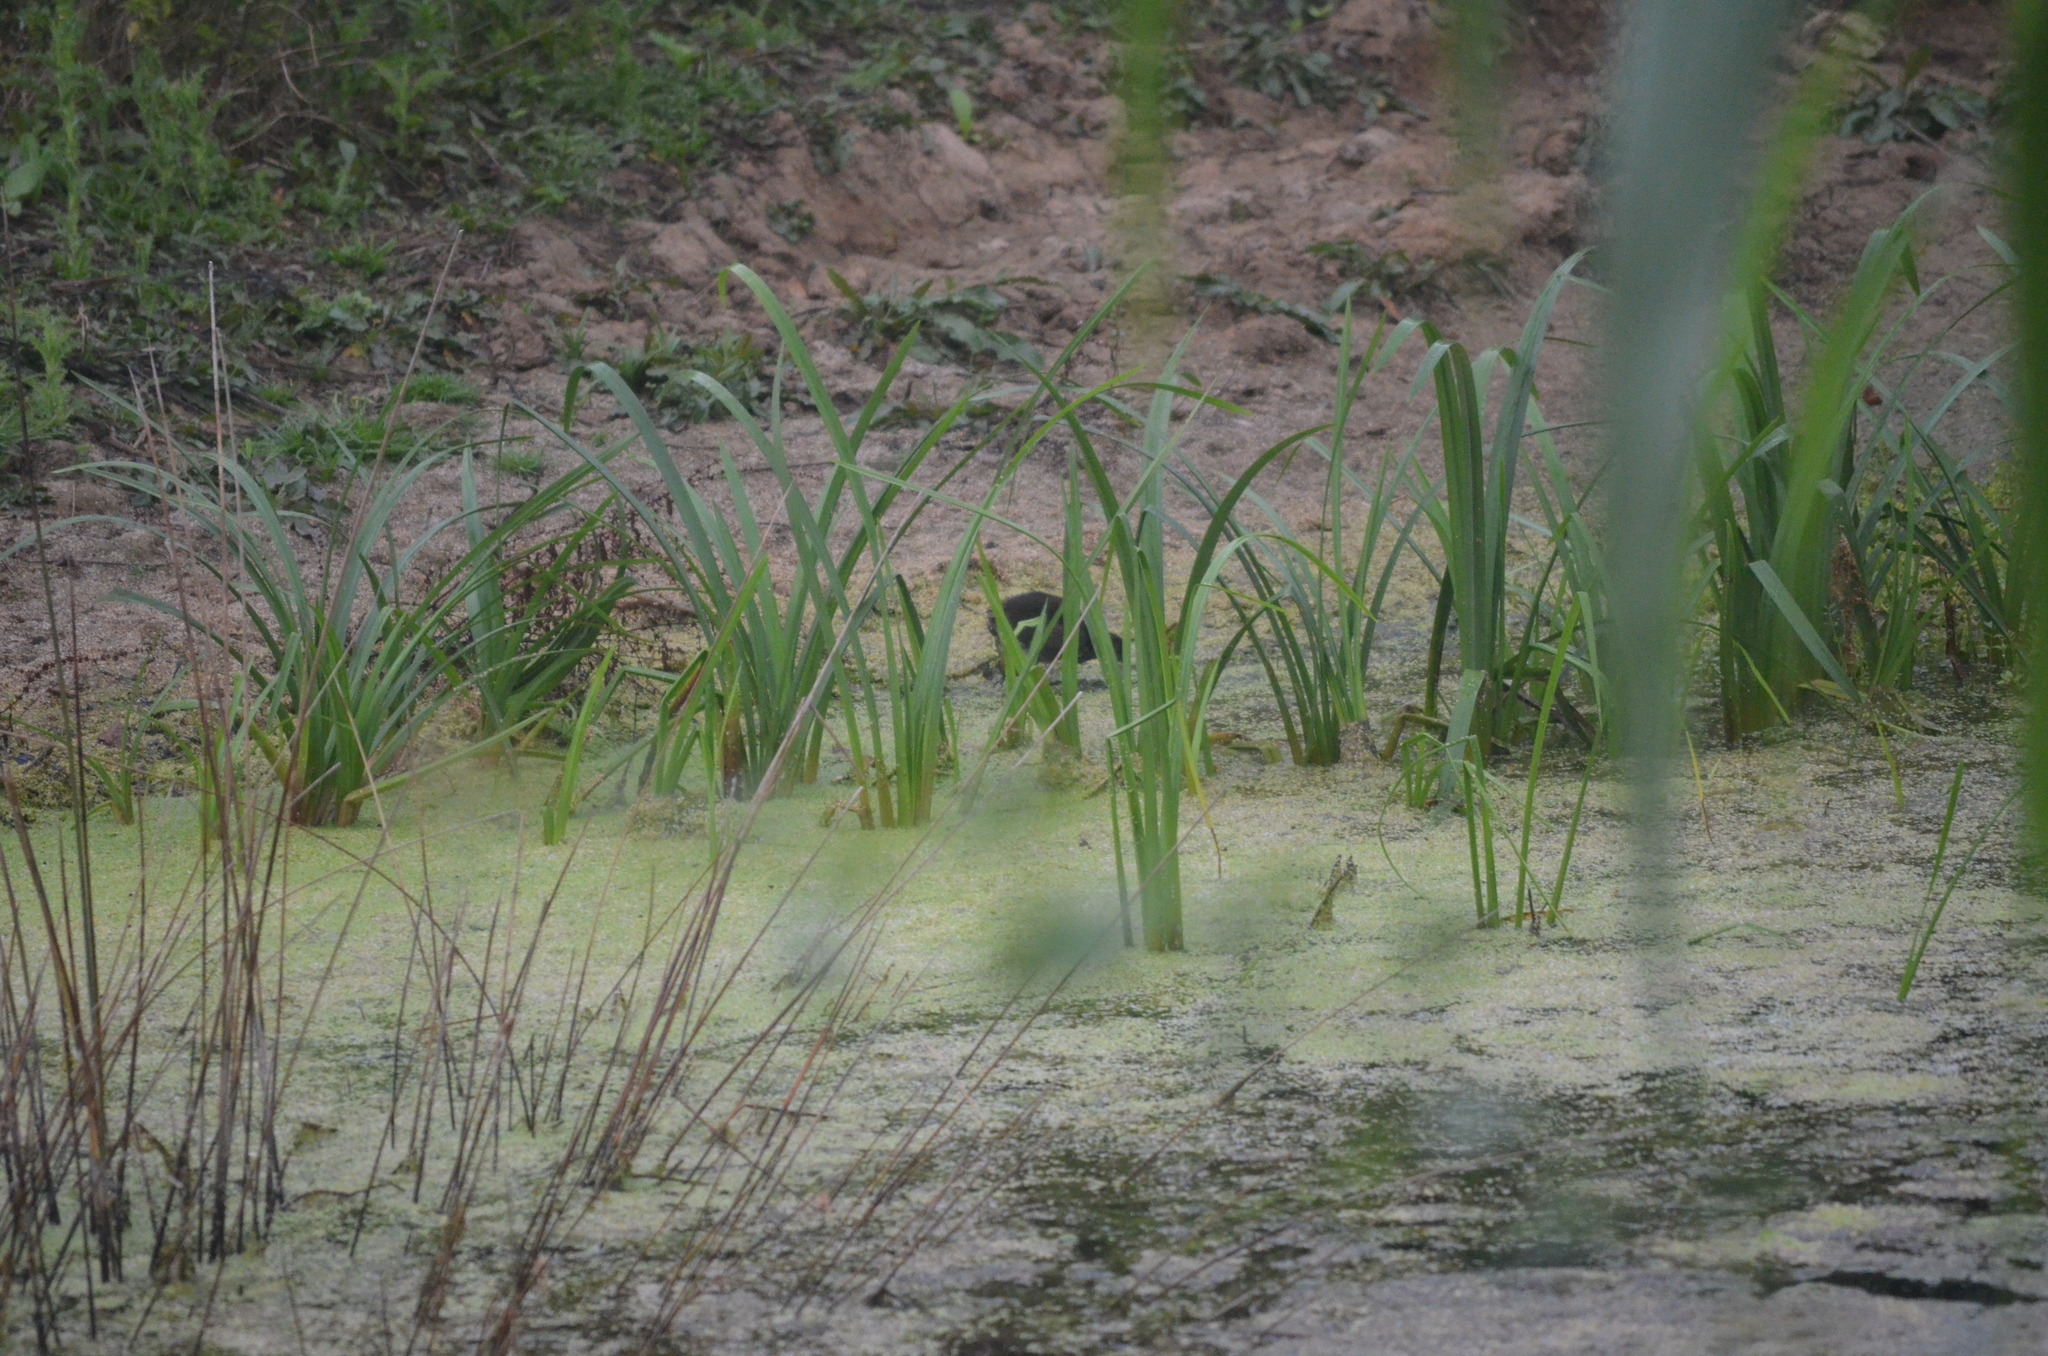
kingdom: Animalia
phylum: Chordata
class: Aves
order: Gruiformes
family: Rallidae
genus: Gallinula
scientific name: Gallinula chloropus
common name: Common moorhen
